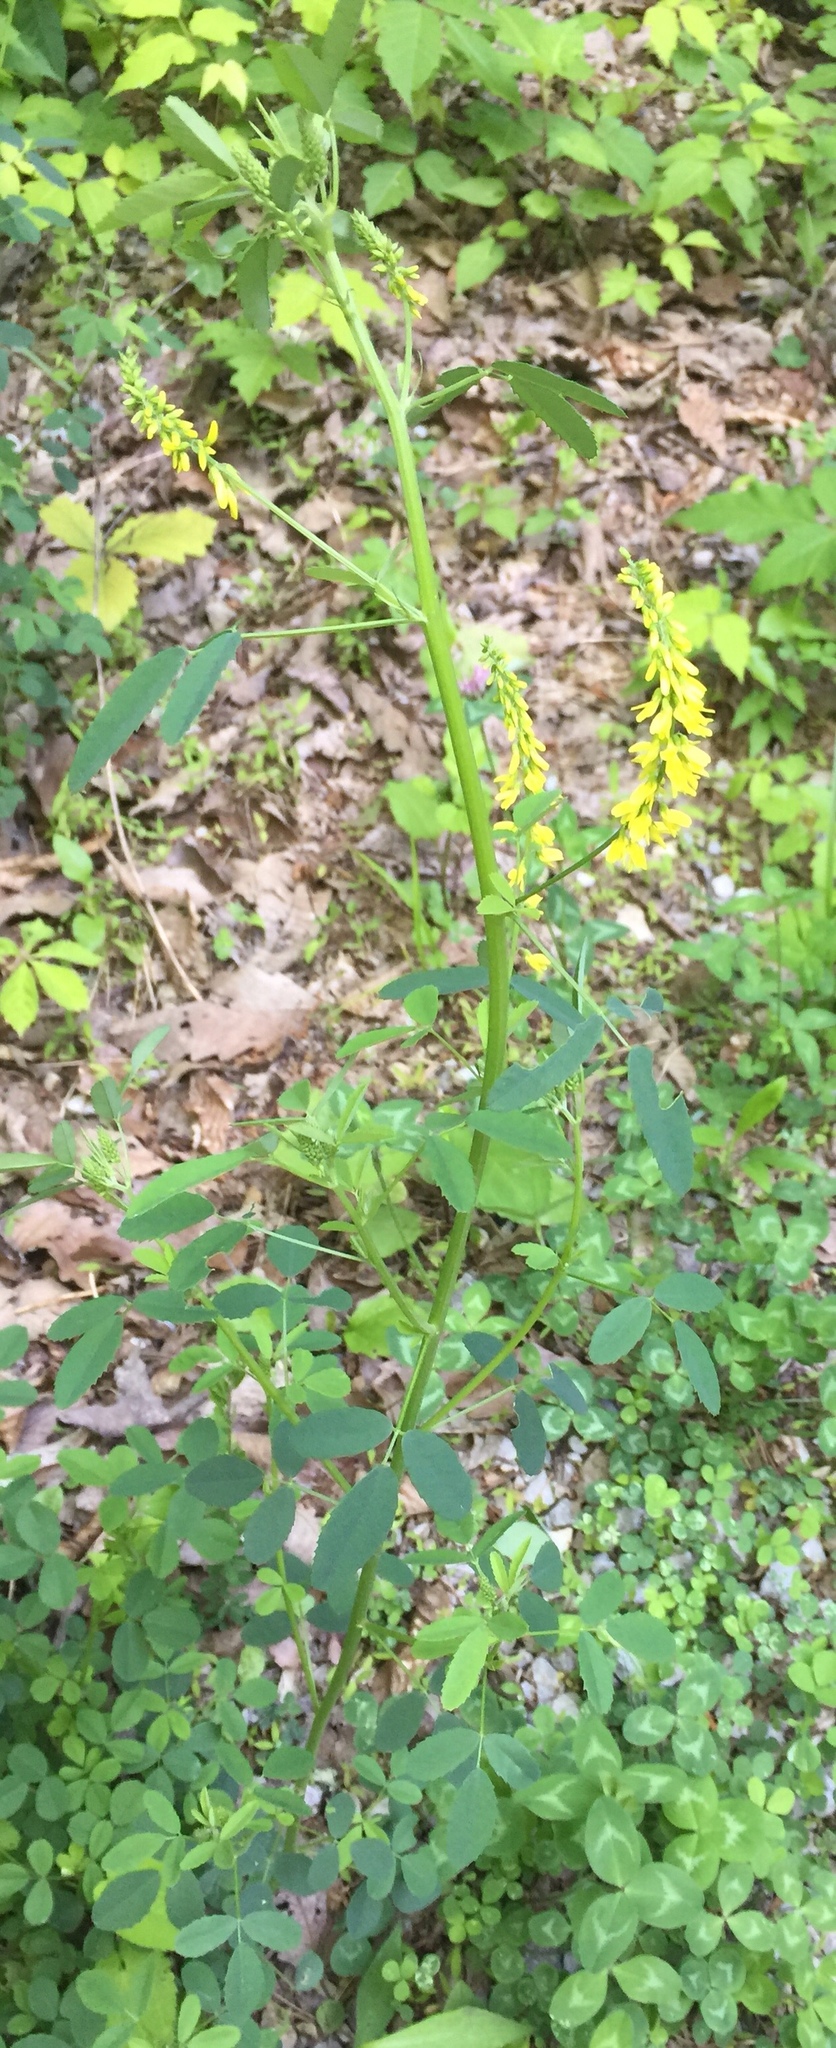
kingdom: Plantae
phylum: Tracheophyta
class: Magnoliopsida
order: Fabales
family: Fabaceae
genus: Melilotus
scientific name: Melilotus officinalis
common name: Sweetclover
